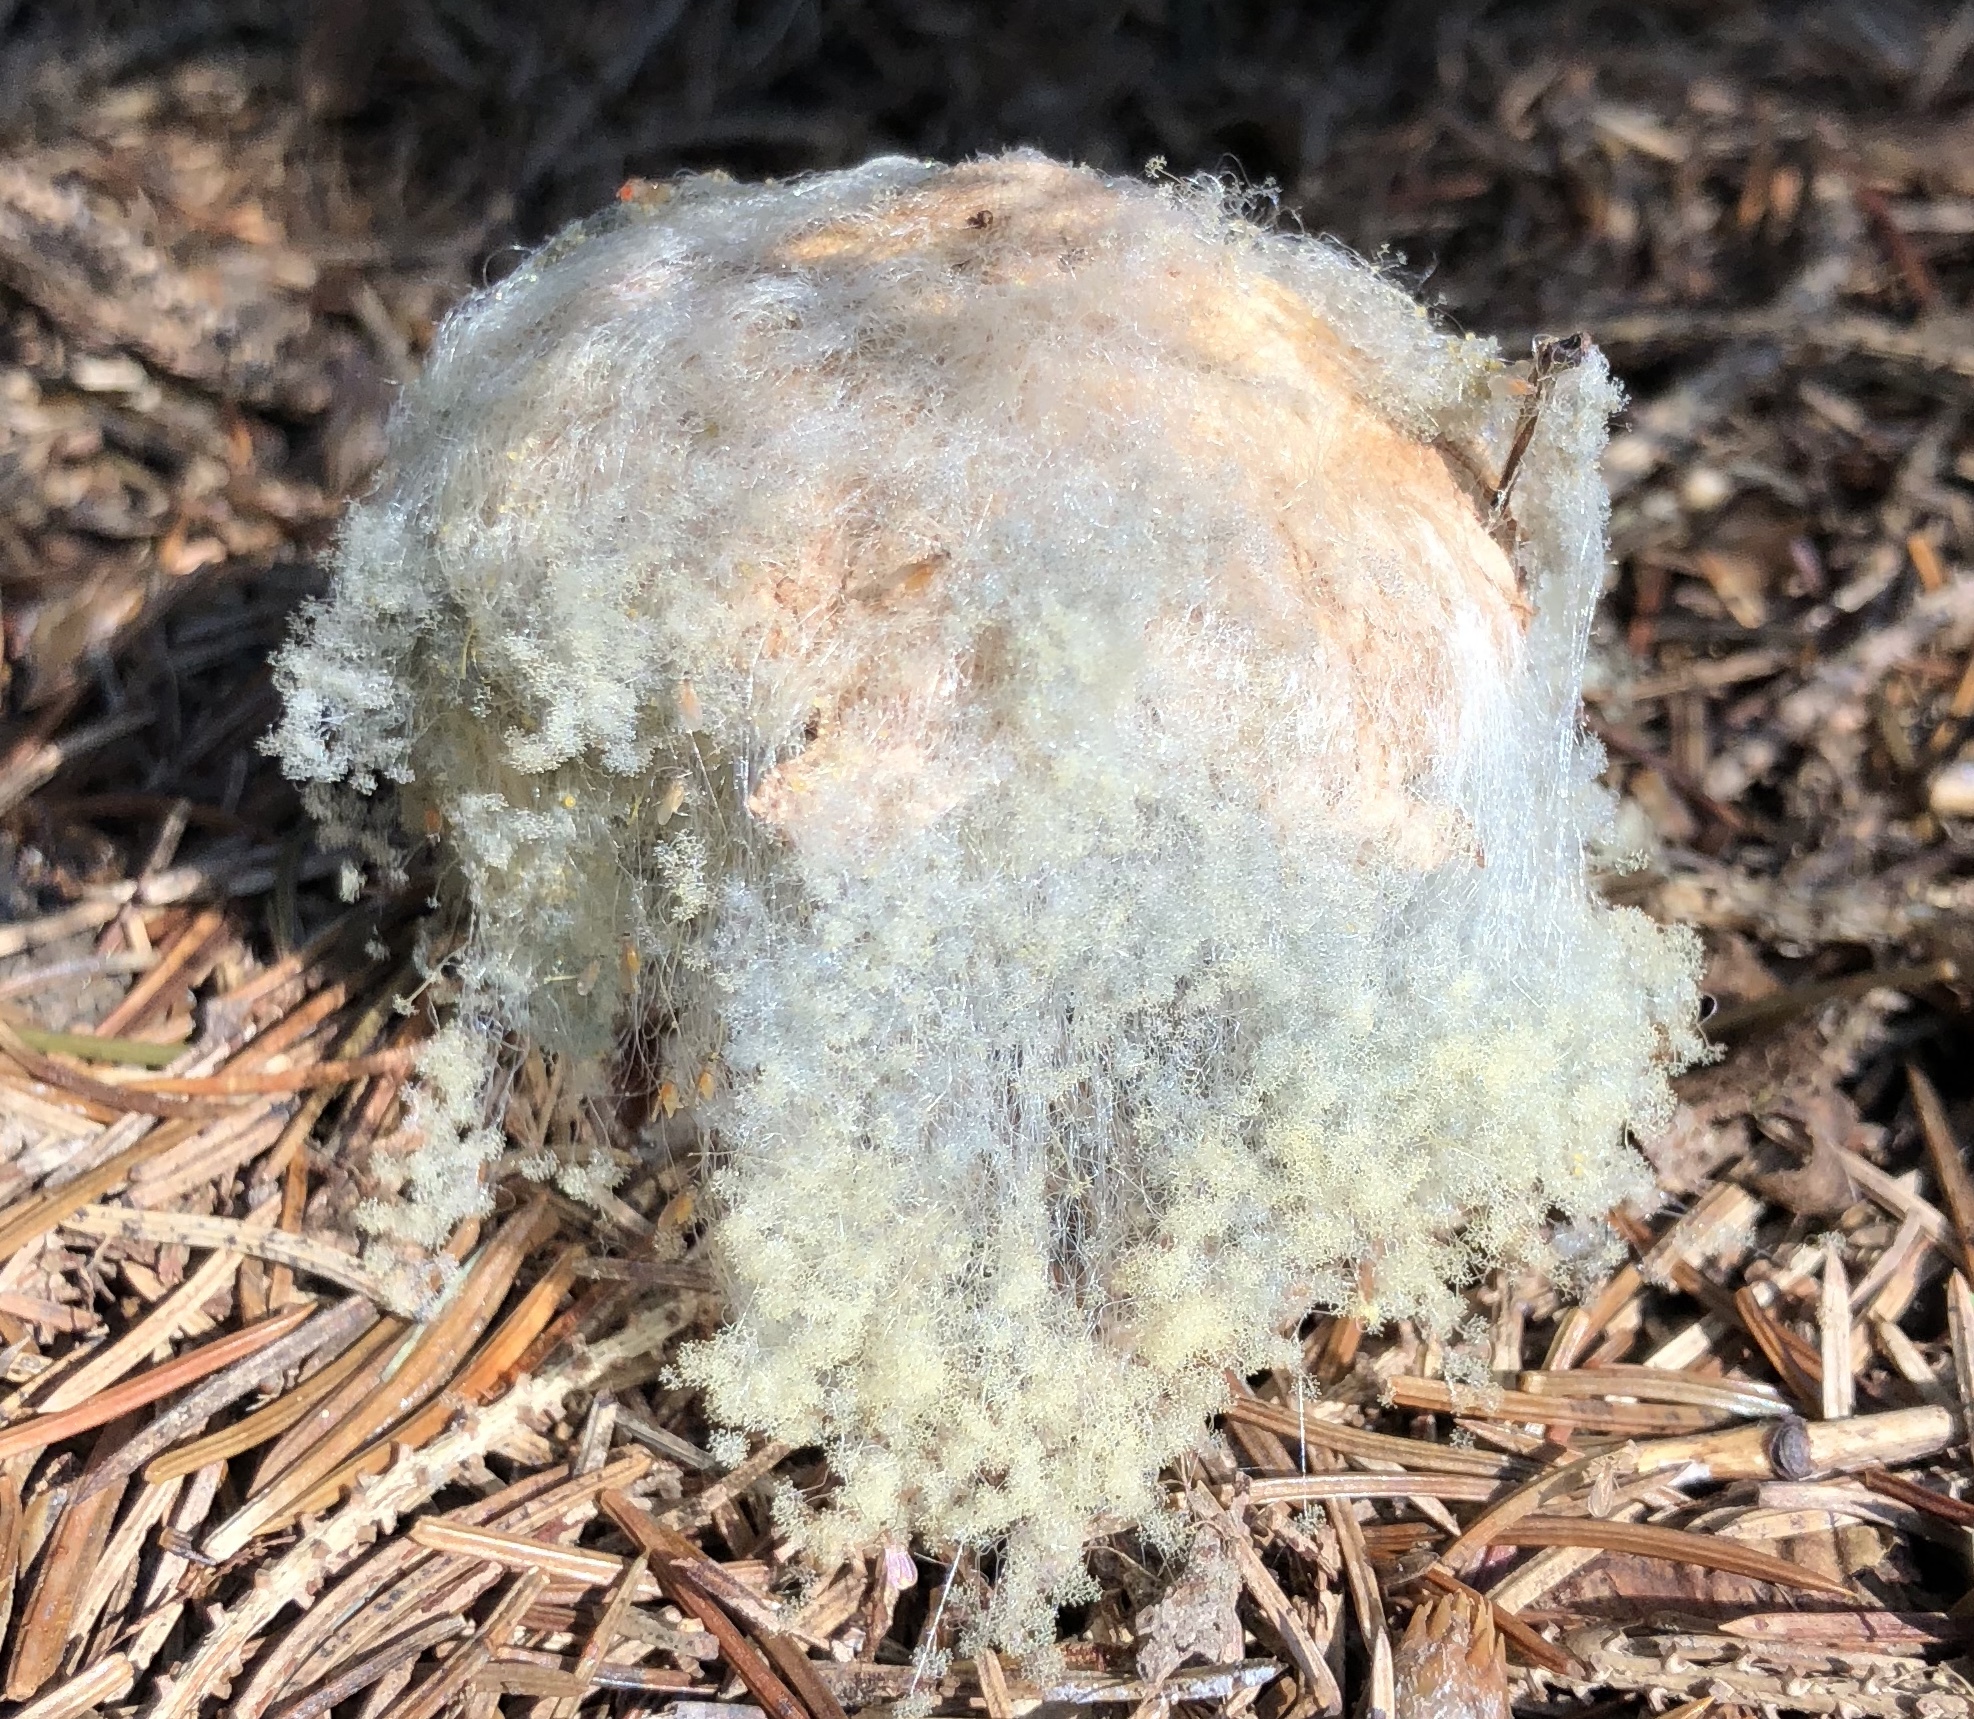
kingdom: Fungi
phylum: Mucoromycota
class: Mucoromycetes
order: Mucorales
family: Rhizopodaceae
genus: Syzygites
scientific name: Syzygites megalocarpus
